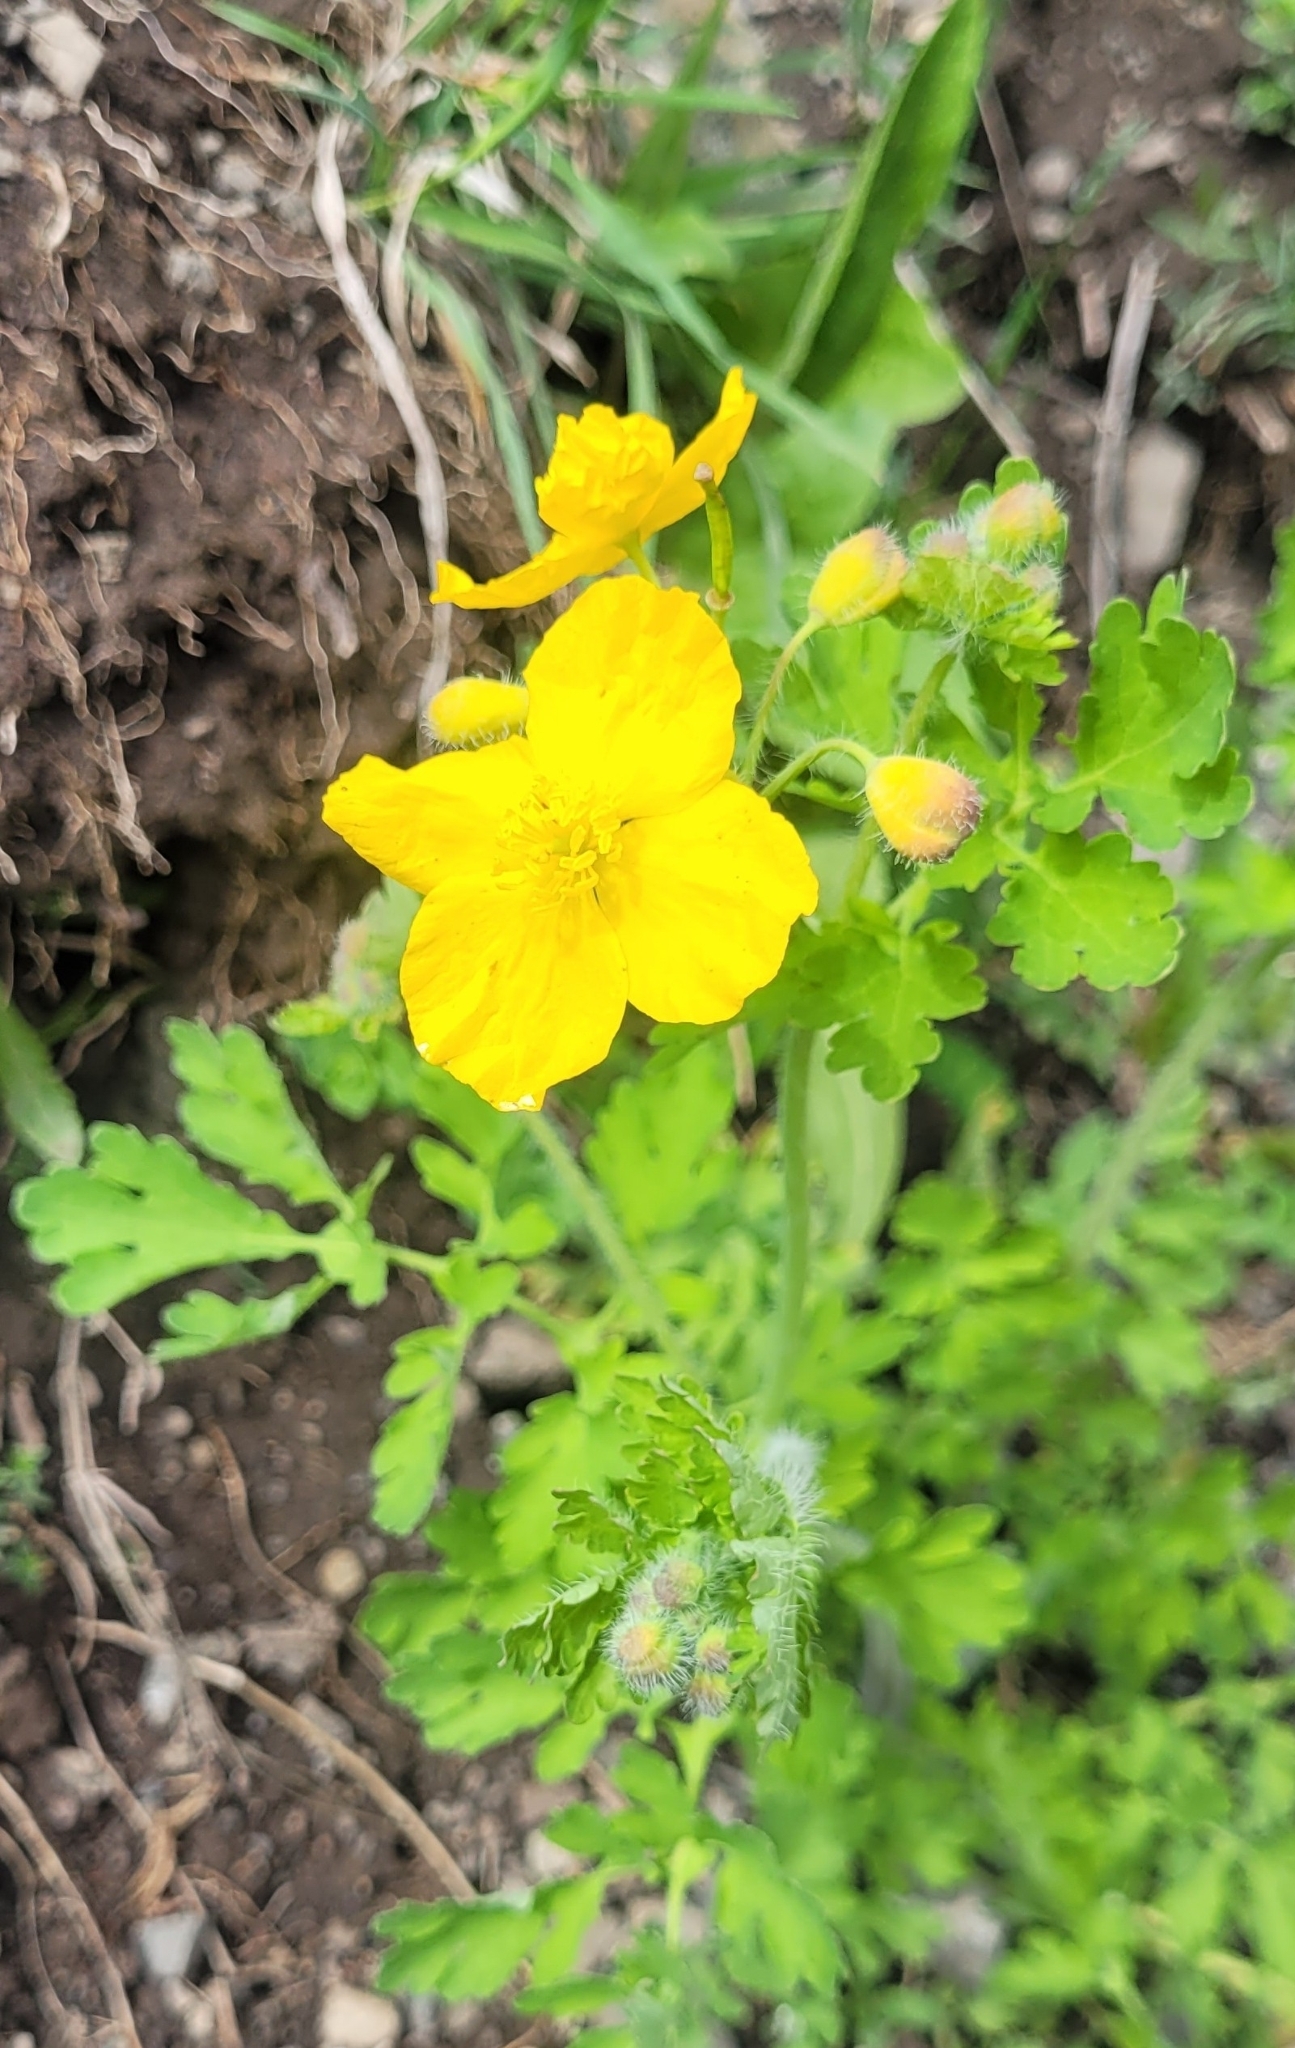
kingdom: Plantae
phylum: Tracheophyta
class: Magnoliopsida
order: Ranunculales
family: Papaveraceae
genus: Chelidonium
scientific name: Chelidonium majus
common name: Greater celandine
